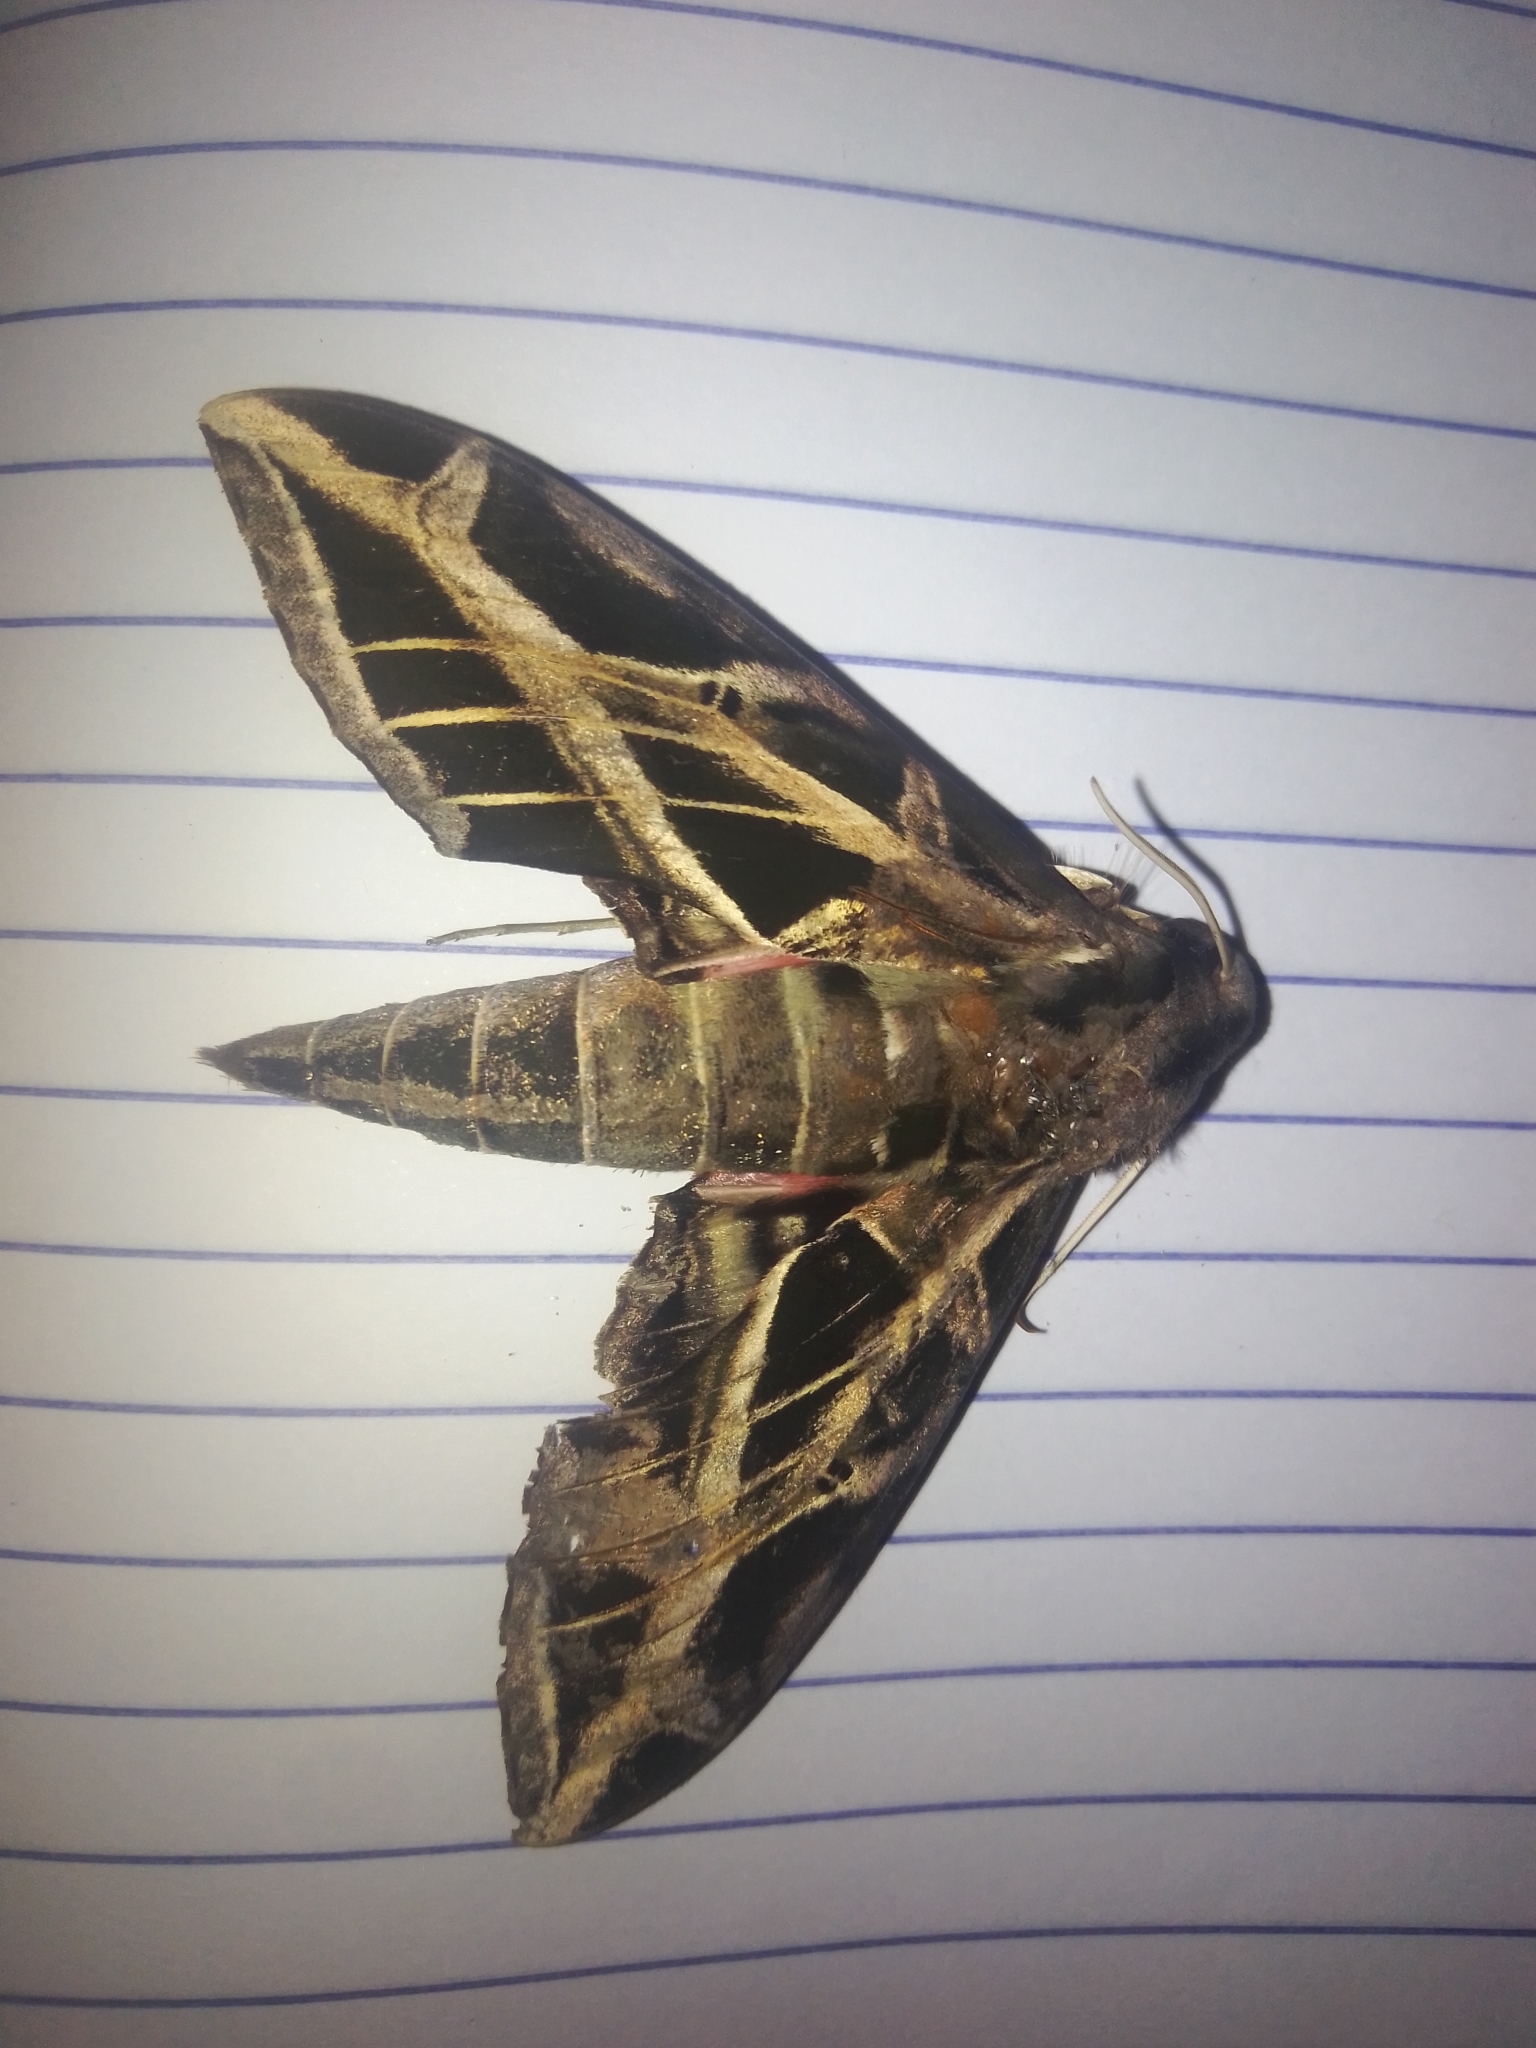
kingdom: Animalia
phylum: Arthropoda
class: Insecta
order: Lepidoptera
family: Sphingidae
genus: Eumorpha
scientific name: Eumorpha vitis
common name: Vine sphinx
